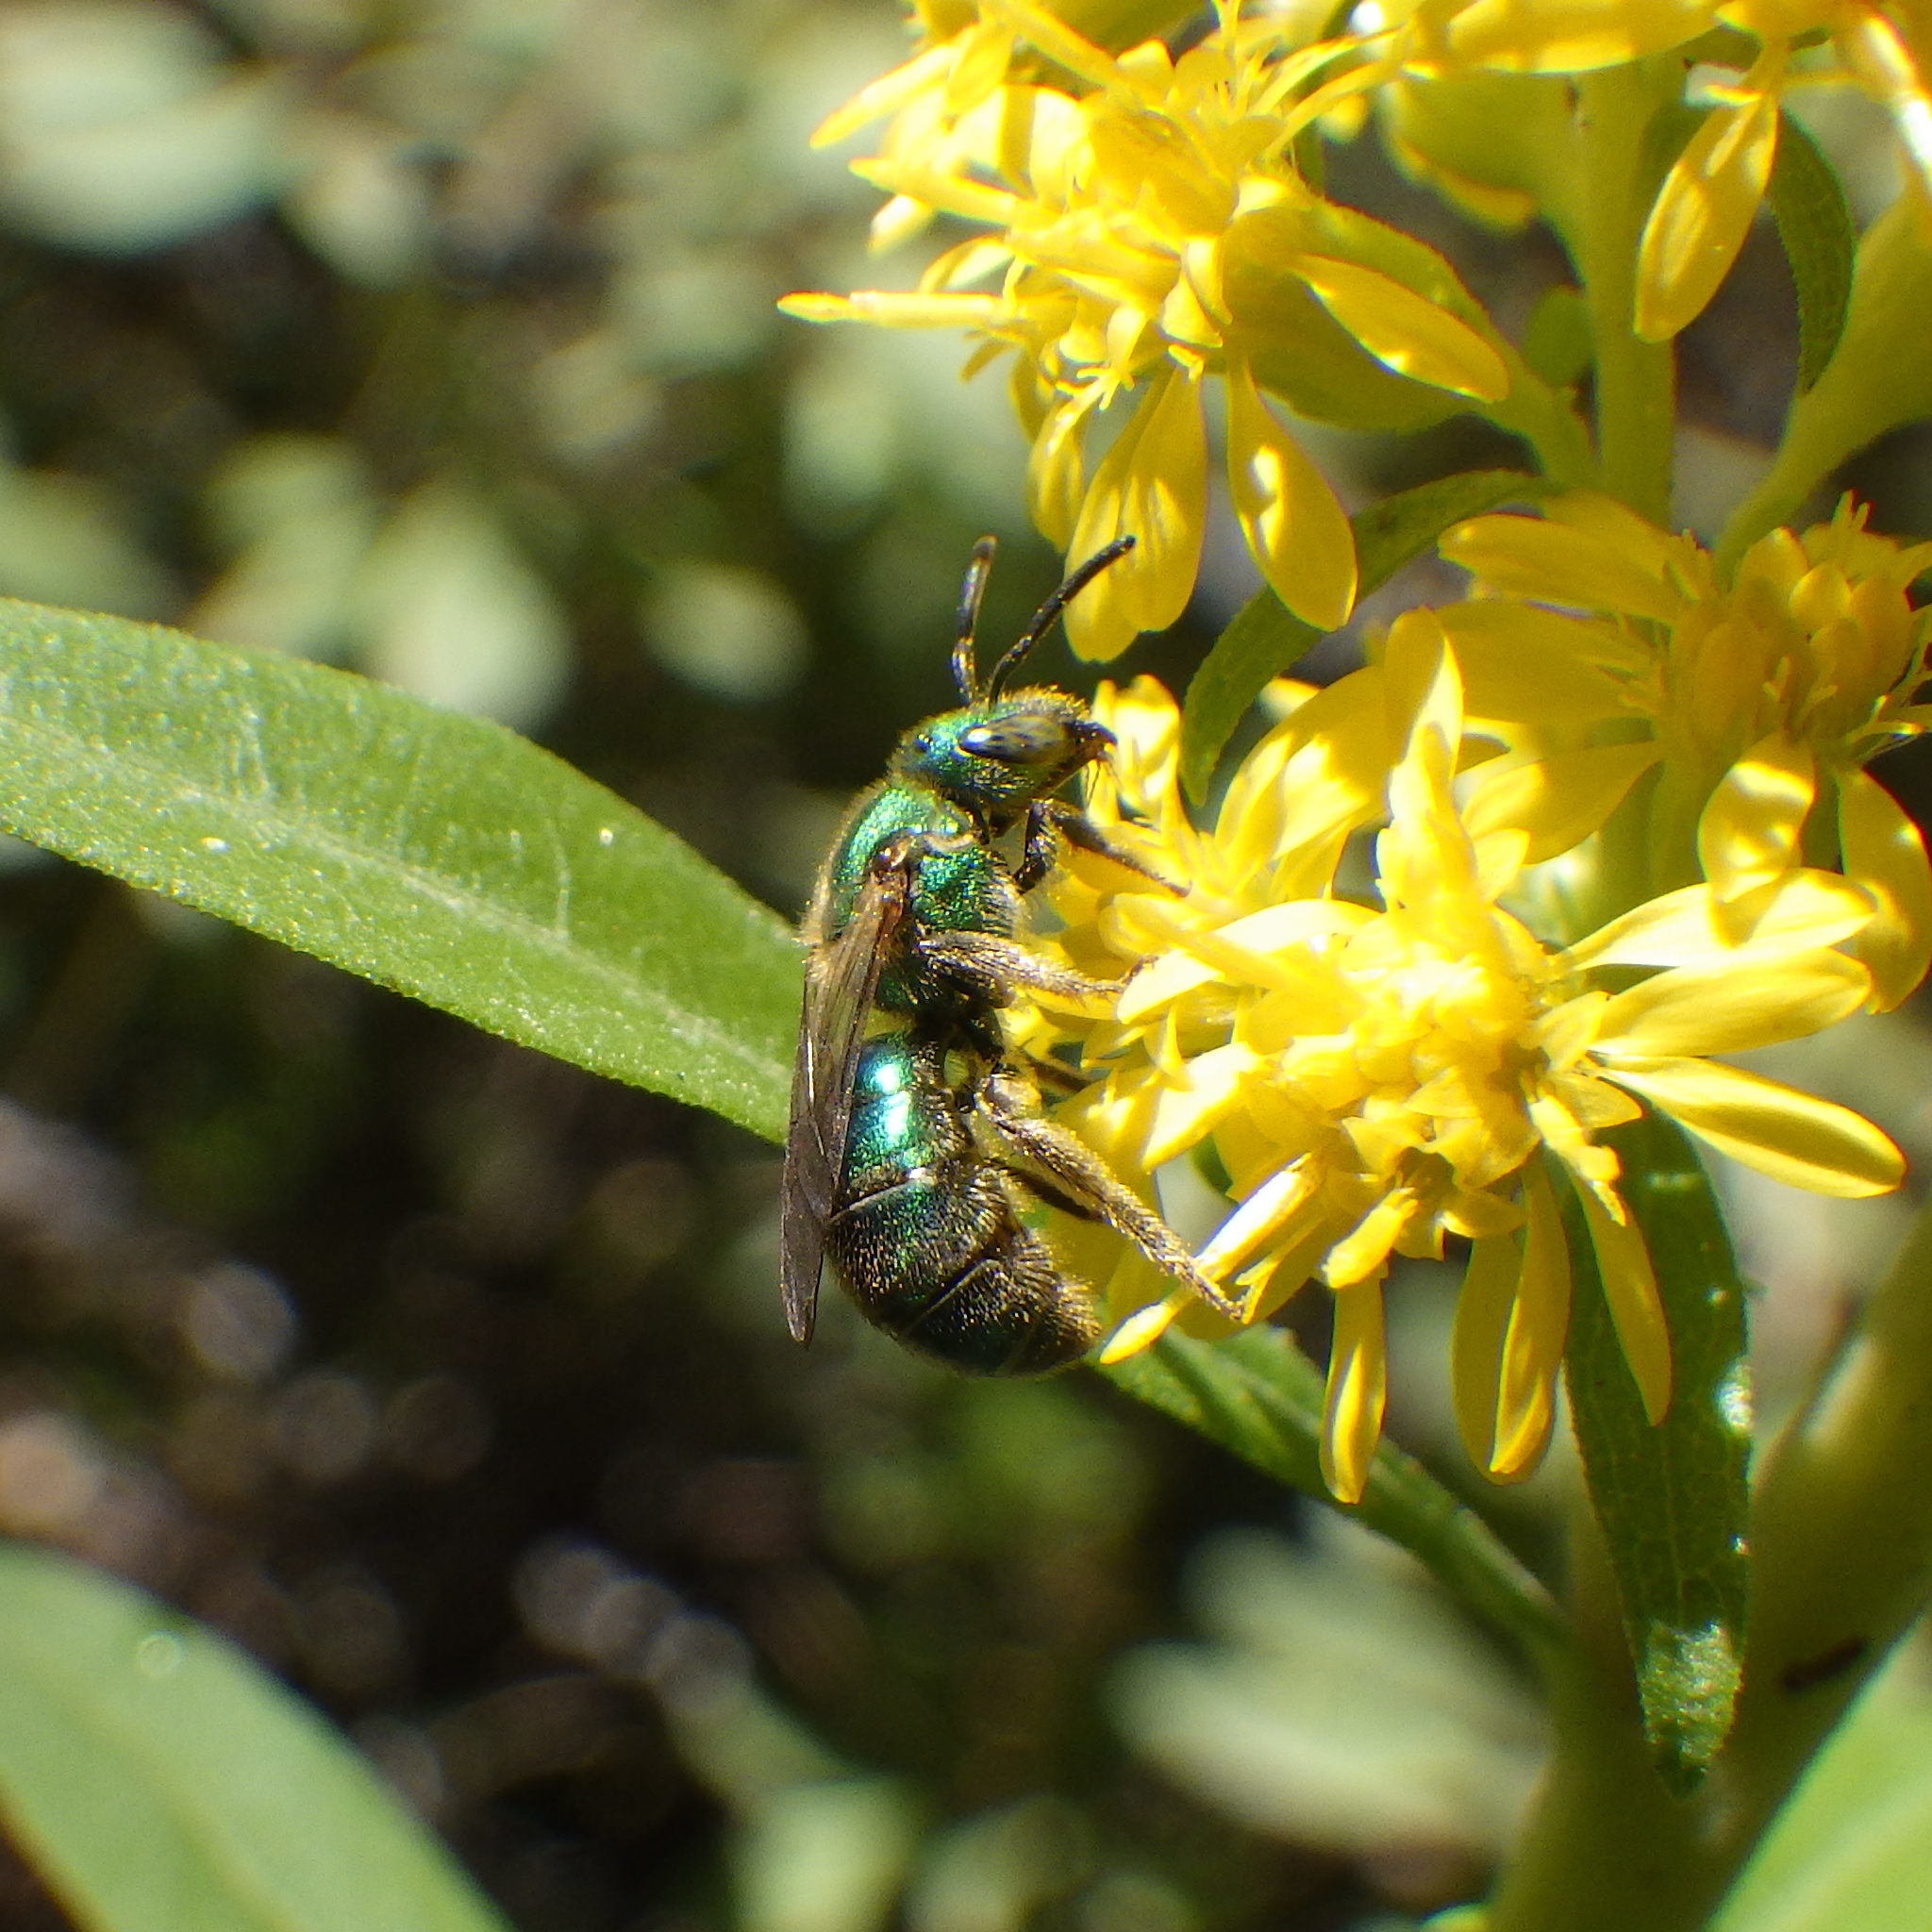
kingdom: Animalia
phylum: Arthropoda
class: Insecta
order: Hymenoptera
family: Halictidae
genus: Augochlorella
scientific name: Augochlorella aurata
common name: Golden sweat bee
